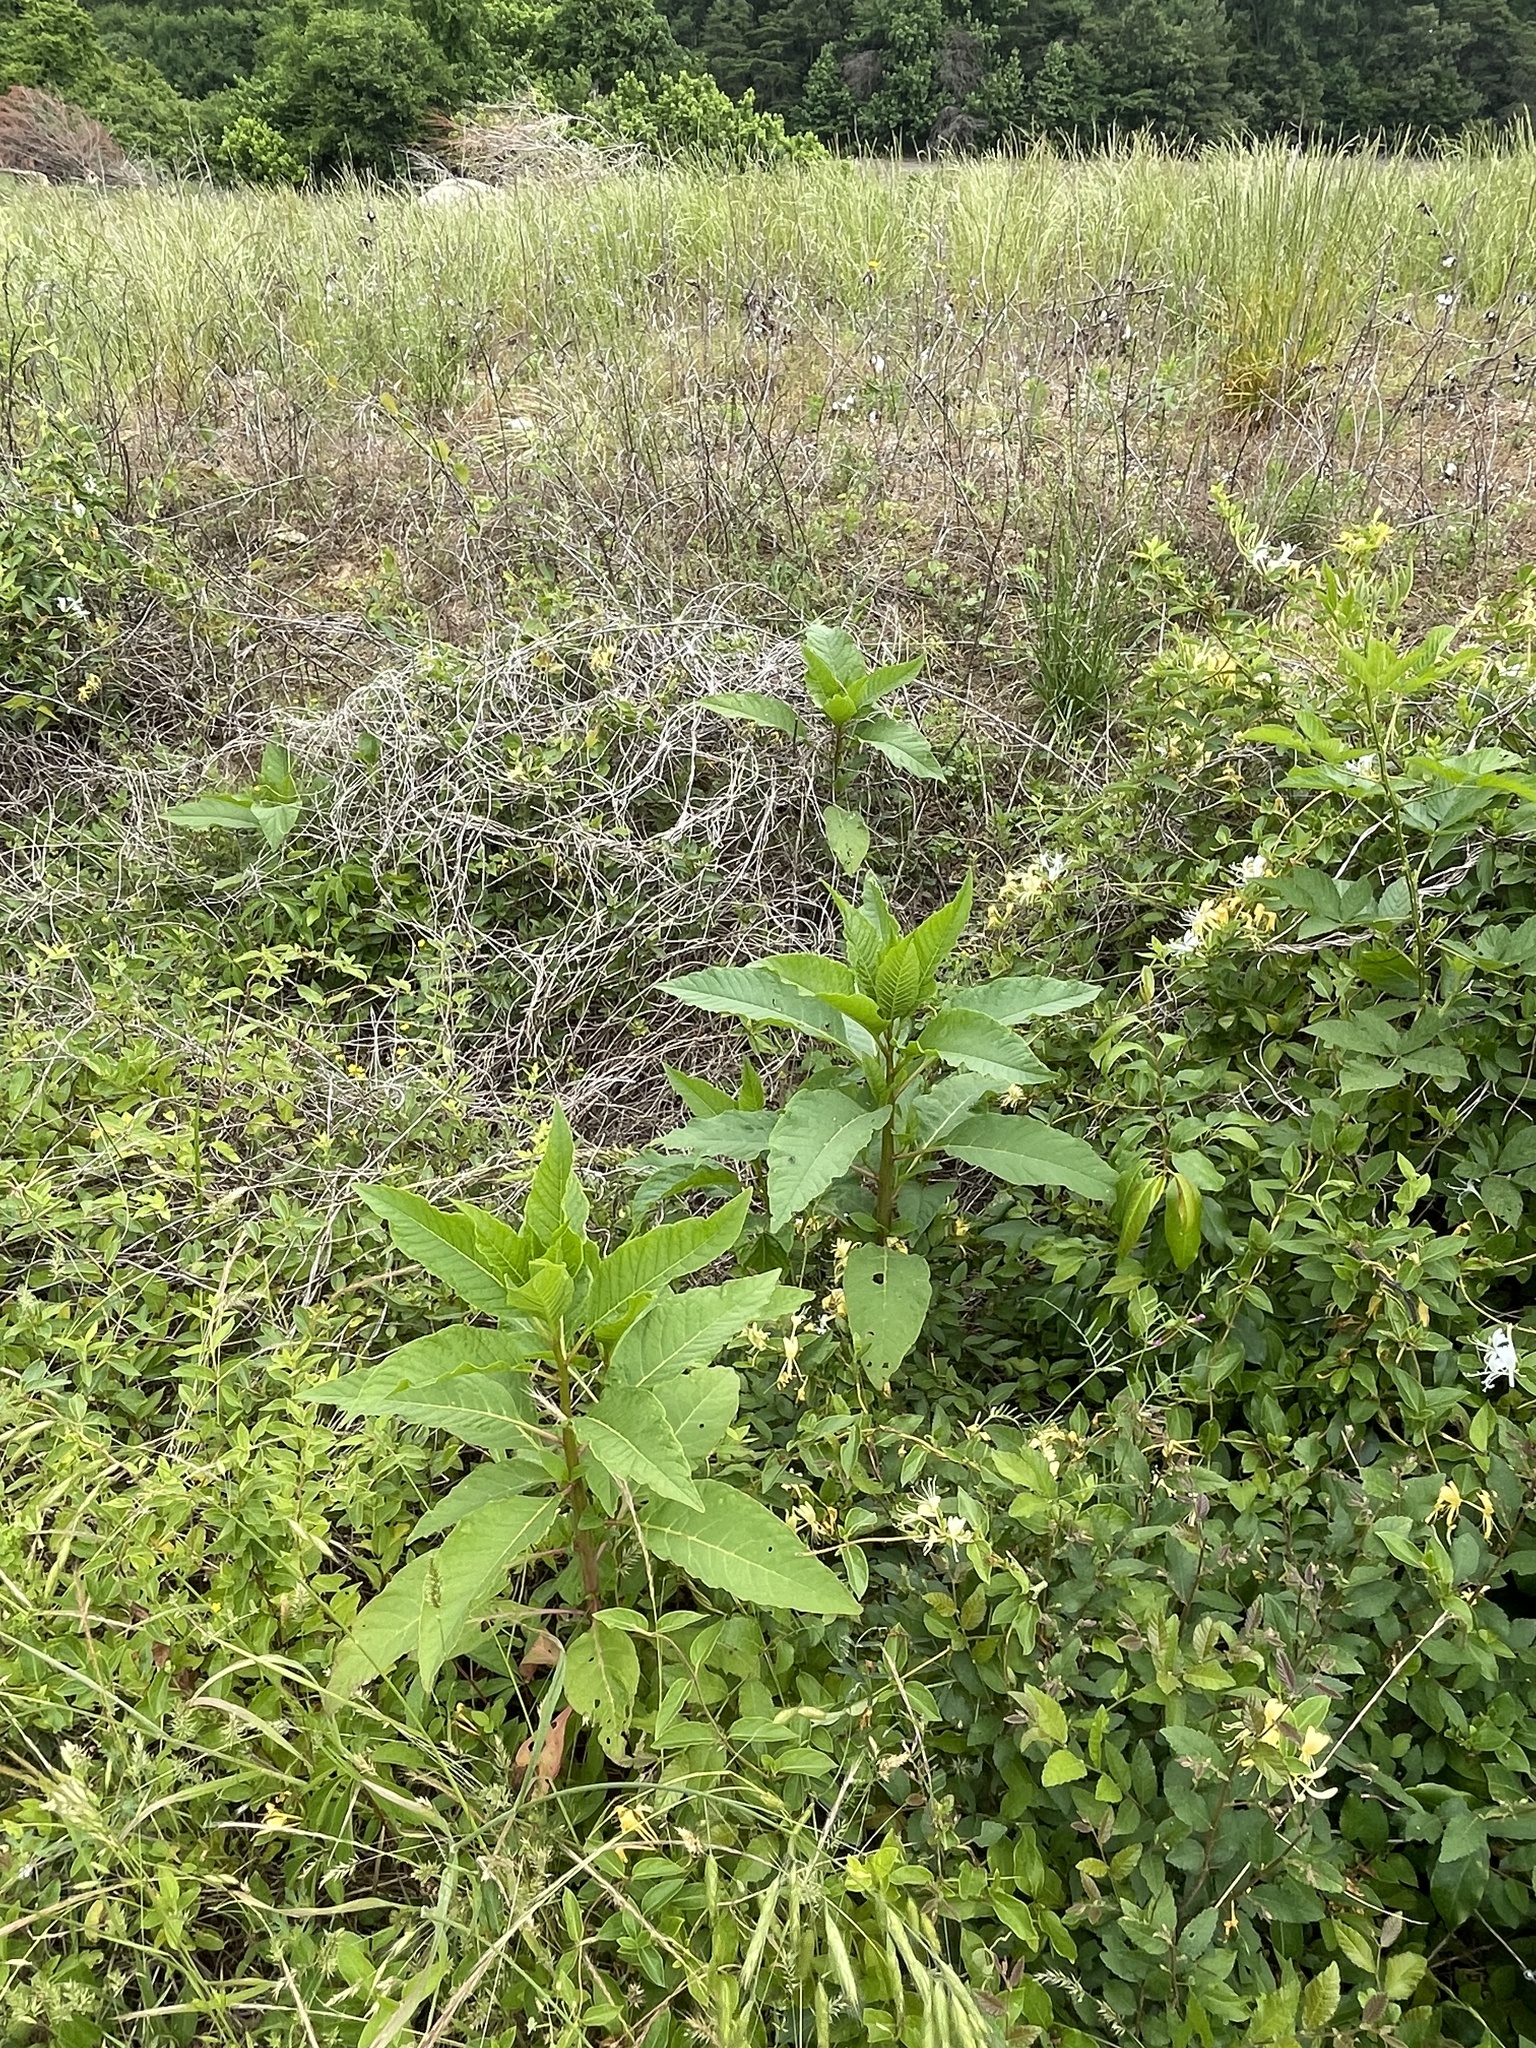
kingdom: Plantae
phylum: Tracheophyta
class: Magnoliopsida
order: Caryophyllales
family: Phytolaccaceae
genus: Phytolacca
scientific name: Phytolacca americana
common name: American pokeweed
